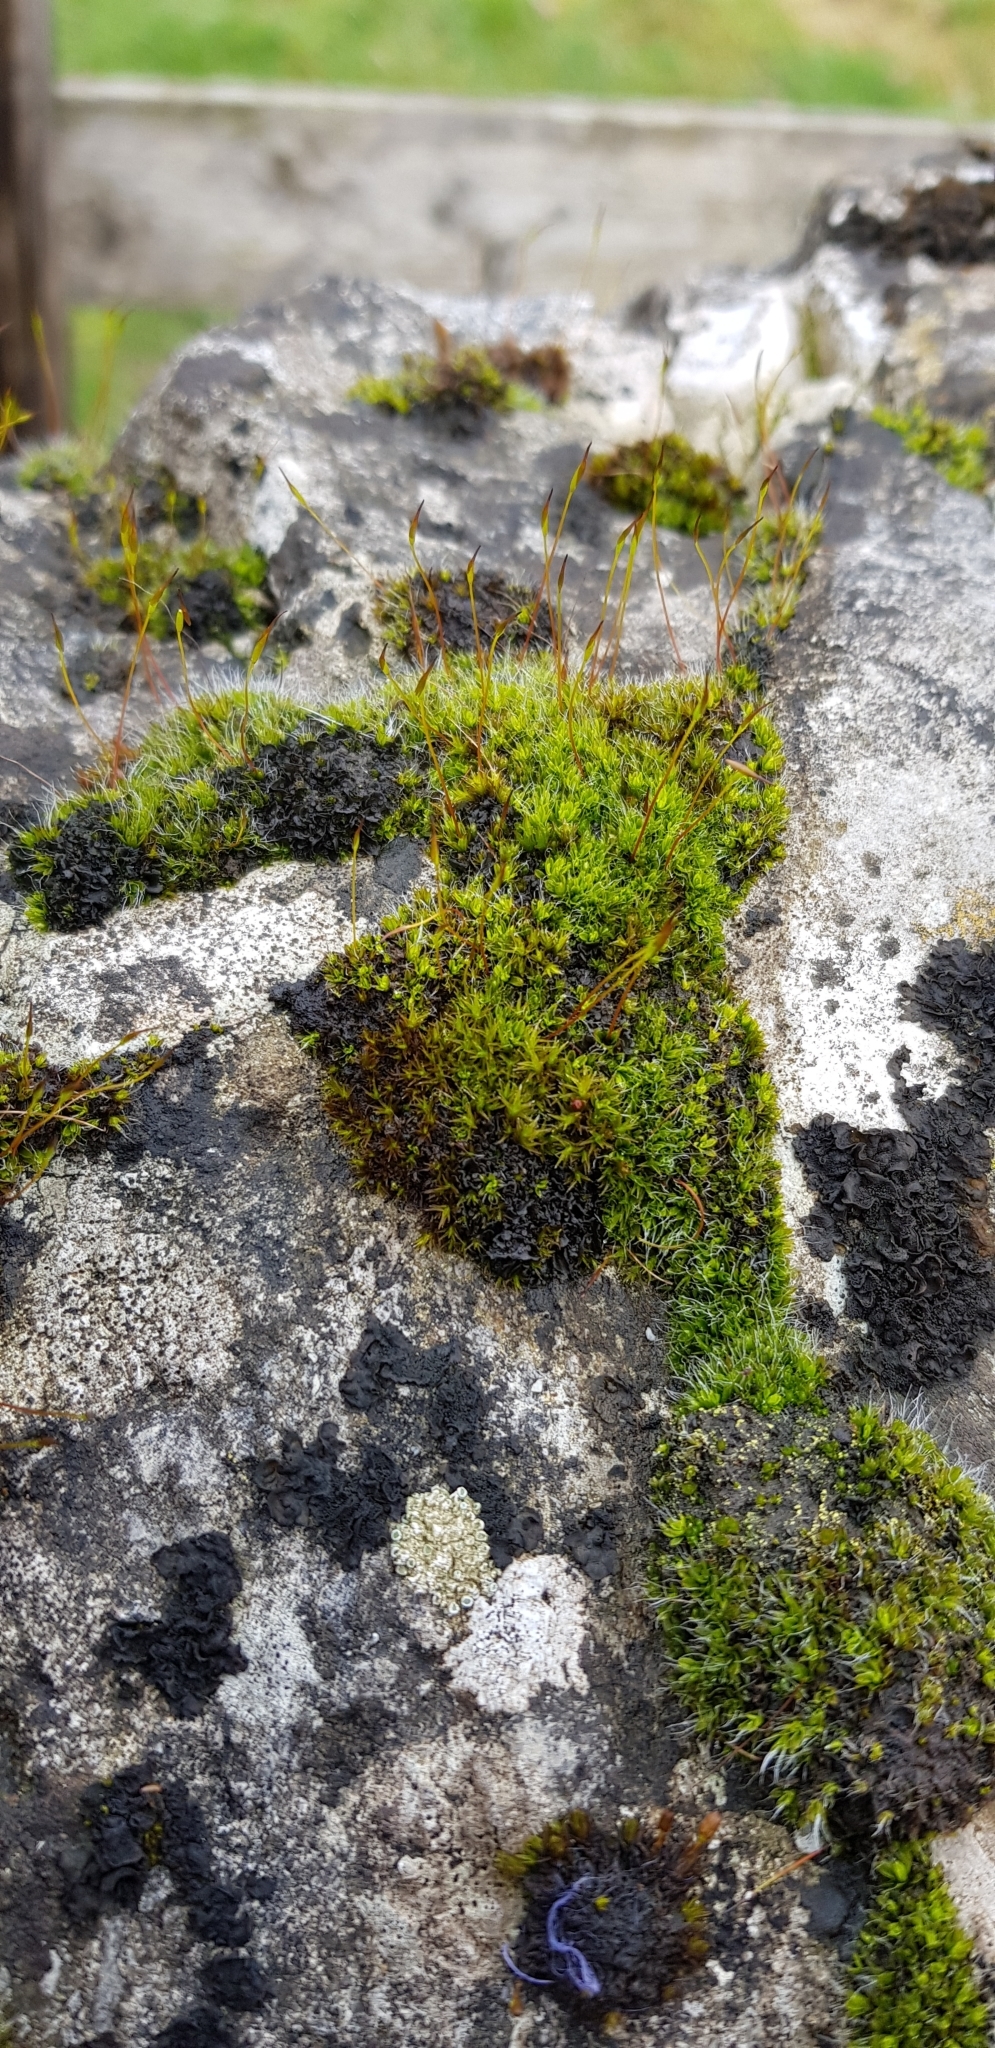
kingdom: Plantae
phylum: Bryophyta
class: Bryopsida
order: Pottiales
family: Pottiaceae
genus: Tortula
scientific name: Tortula muralis
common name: Wall screw-moss
